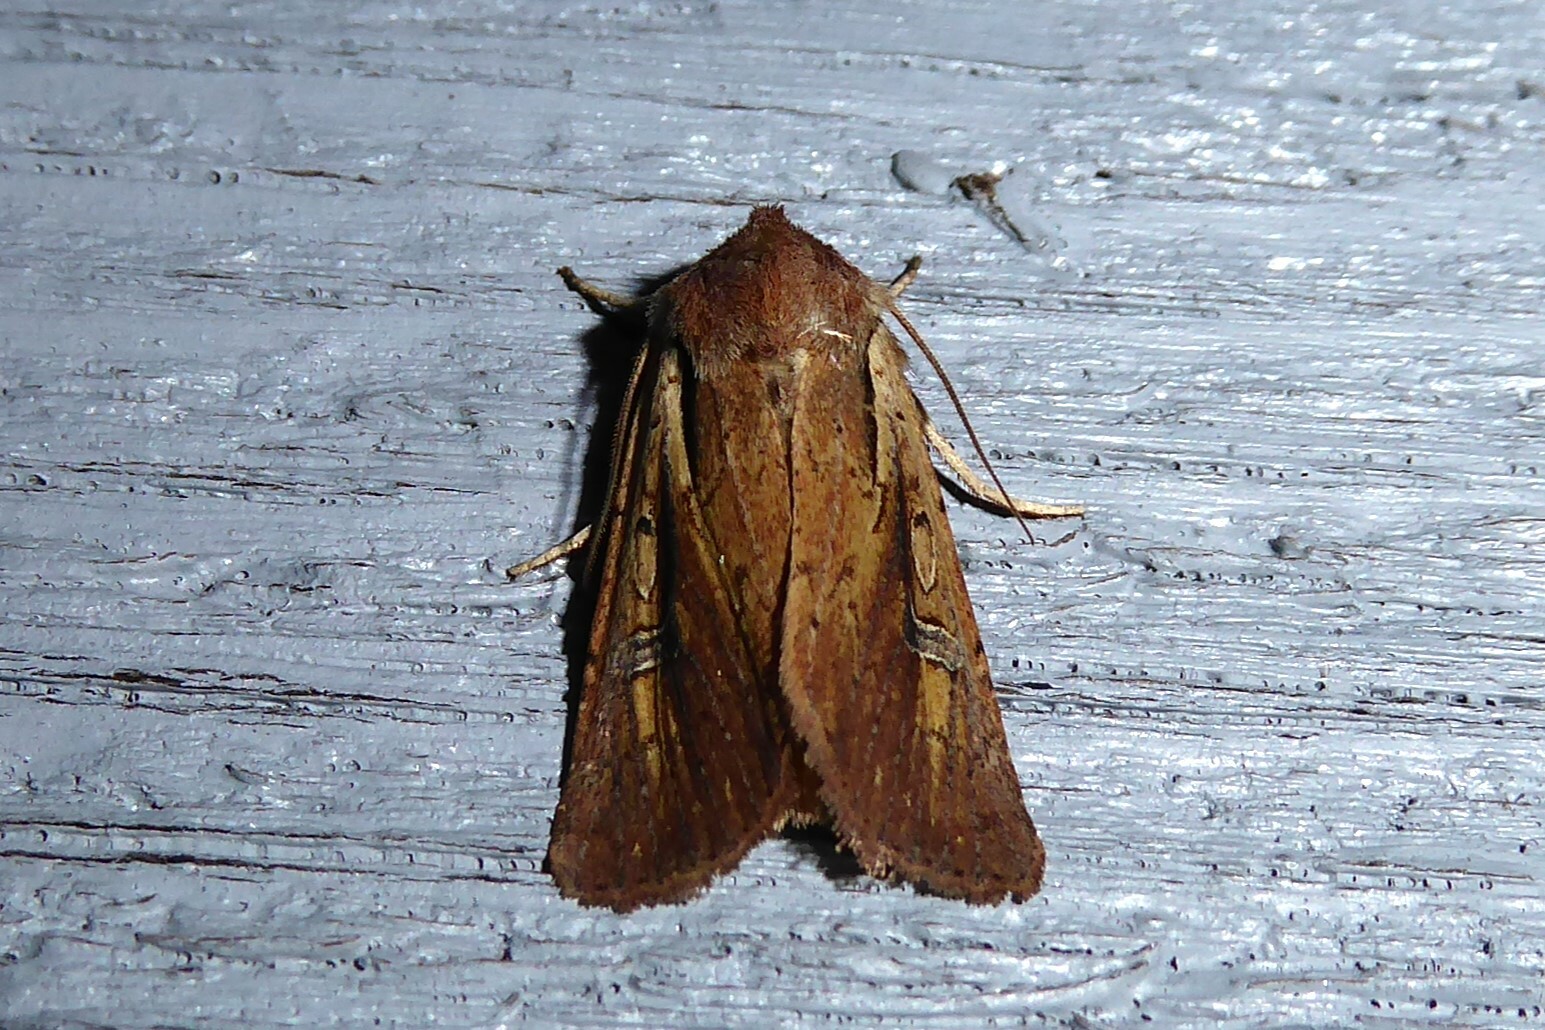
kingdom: Animalia
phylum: Arthropoda
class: Insecta
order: Lepidoptera
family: Noctuidae
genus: Ichneutica
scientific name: Ichneutica atristriga
